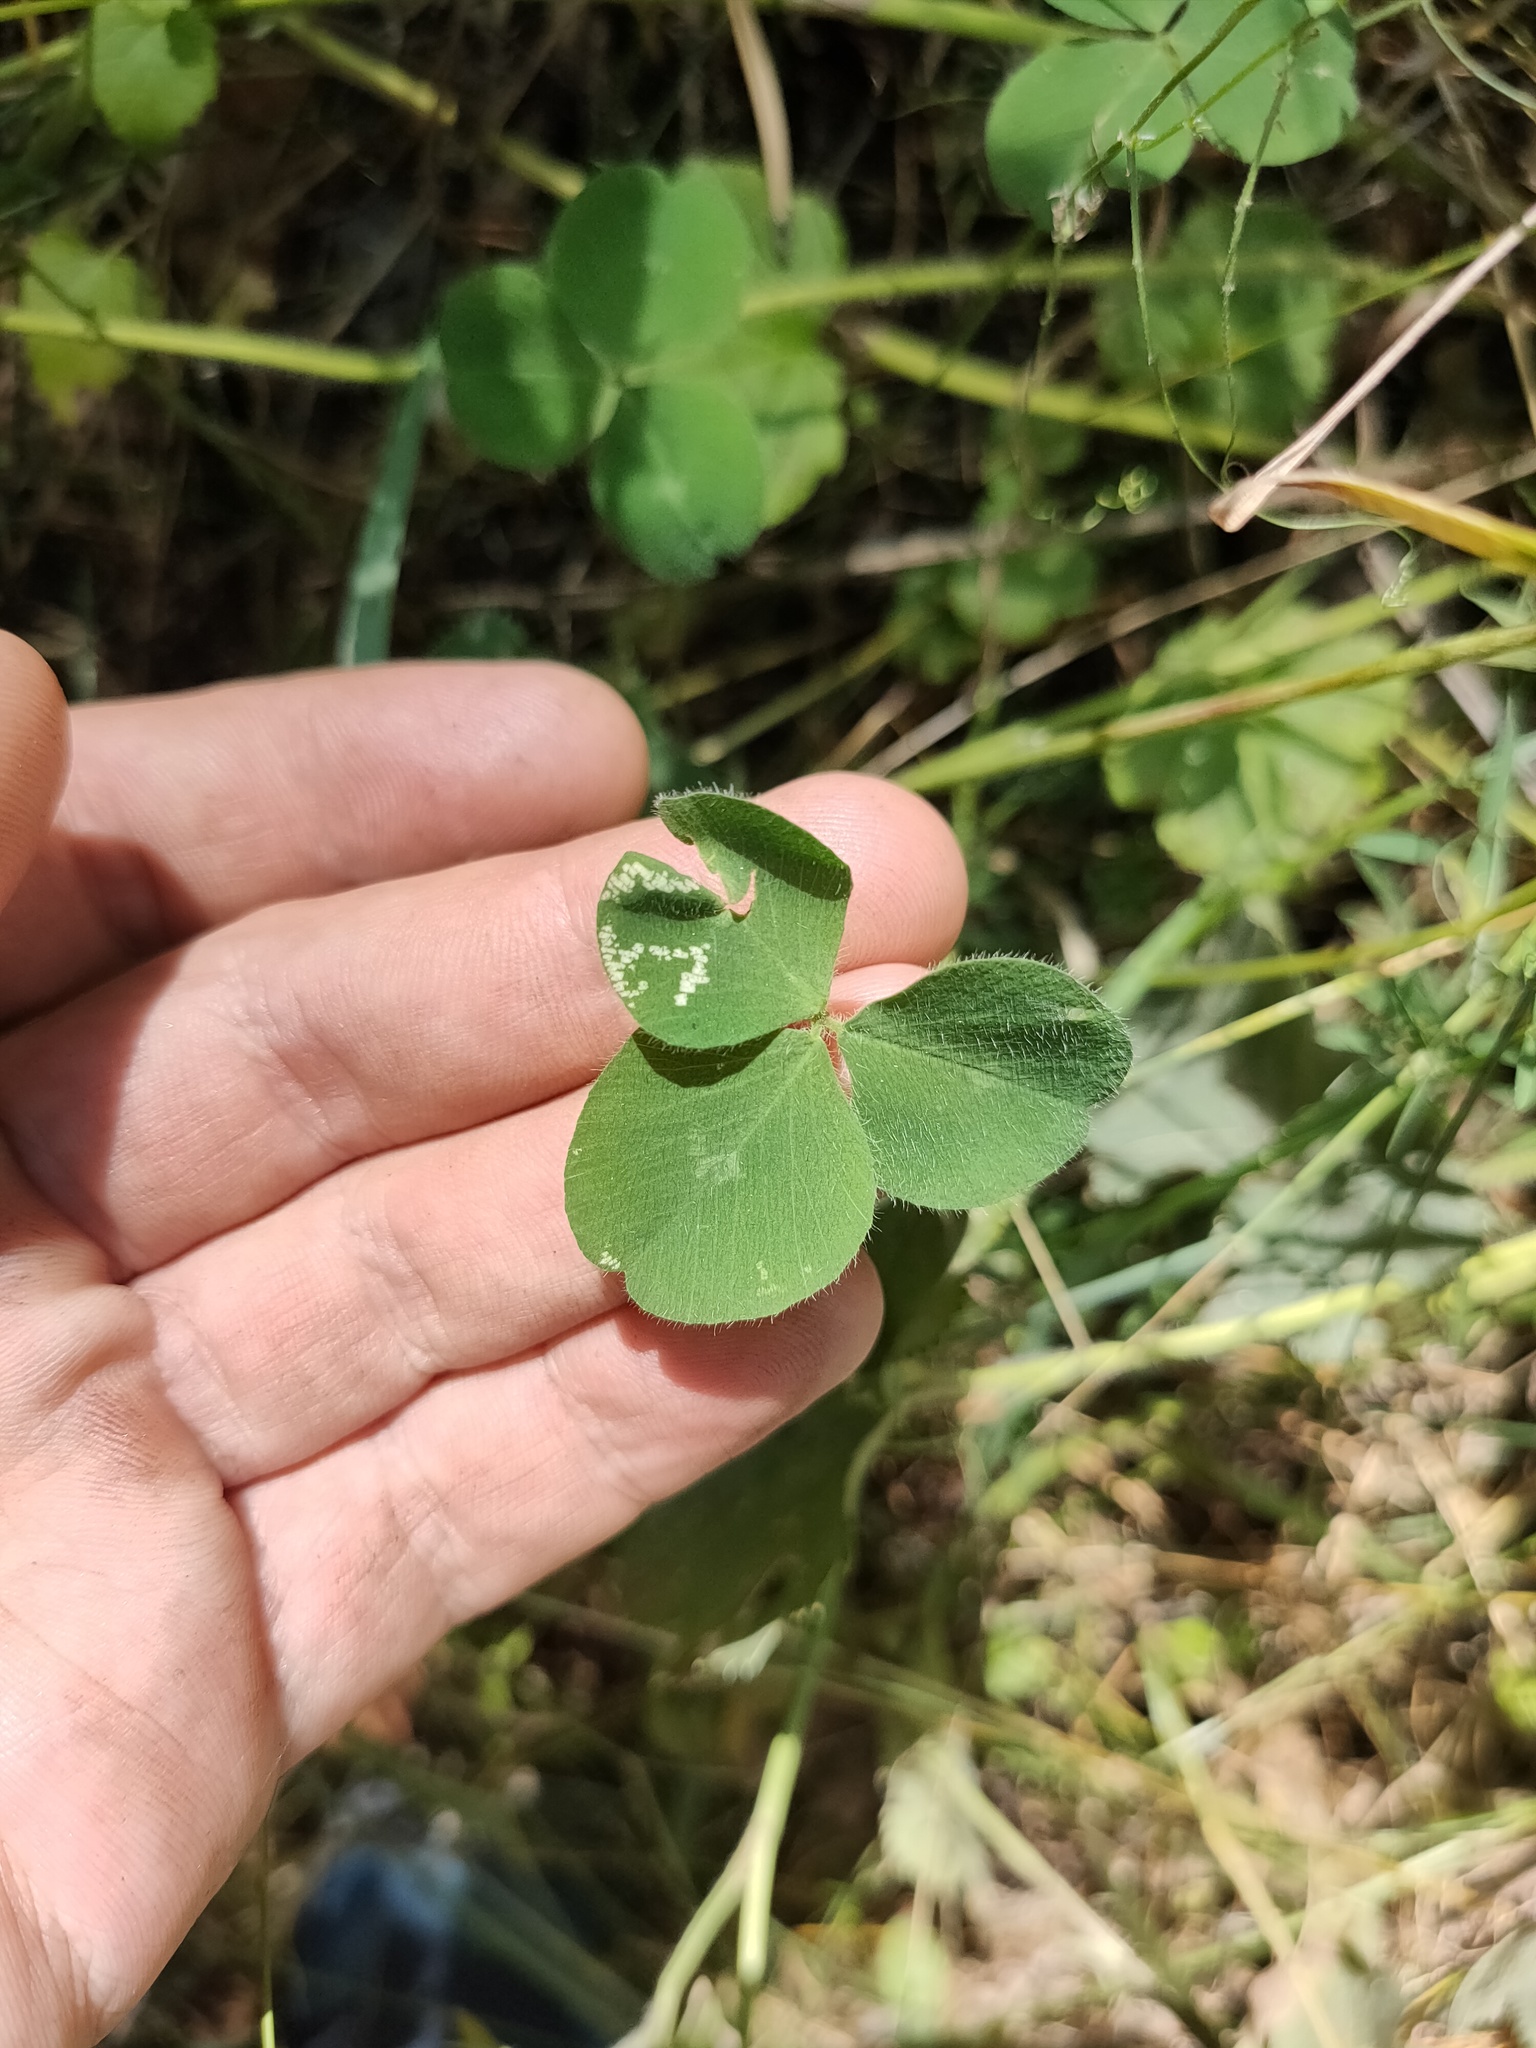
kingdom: Plantae
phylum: Tracheophyta
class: Magnoliopsida
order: Fabales
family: Fabaceae
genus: Trifolium
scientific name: Trifolium
